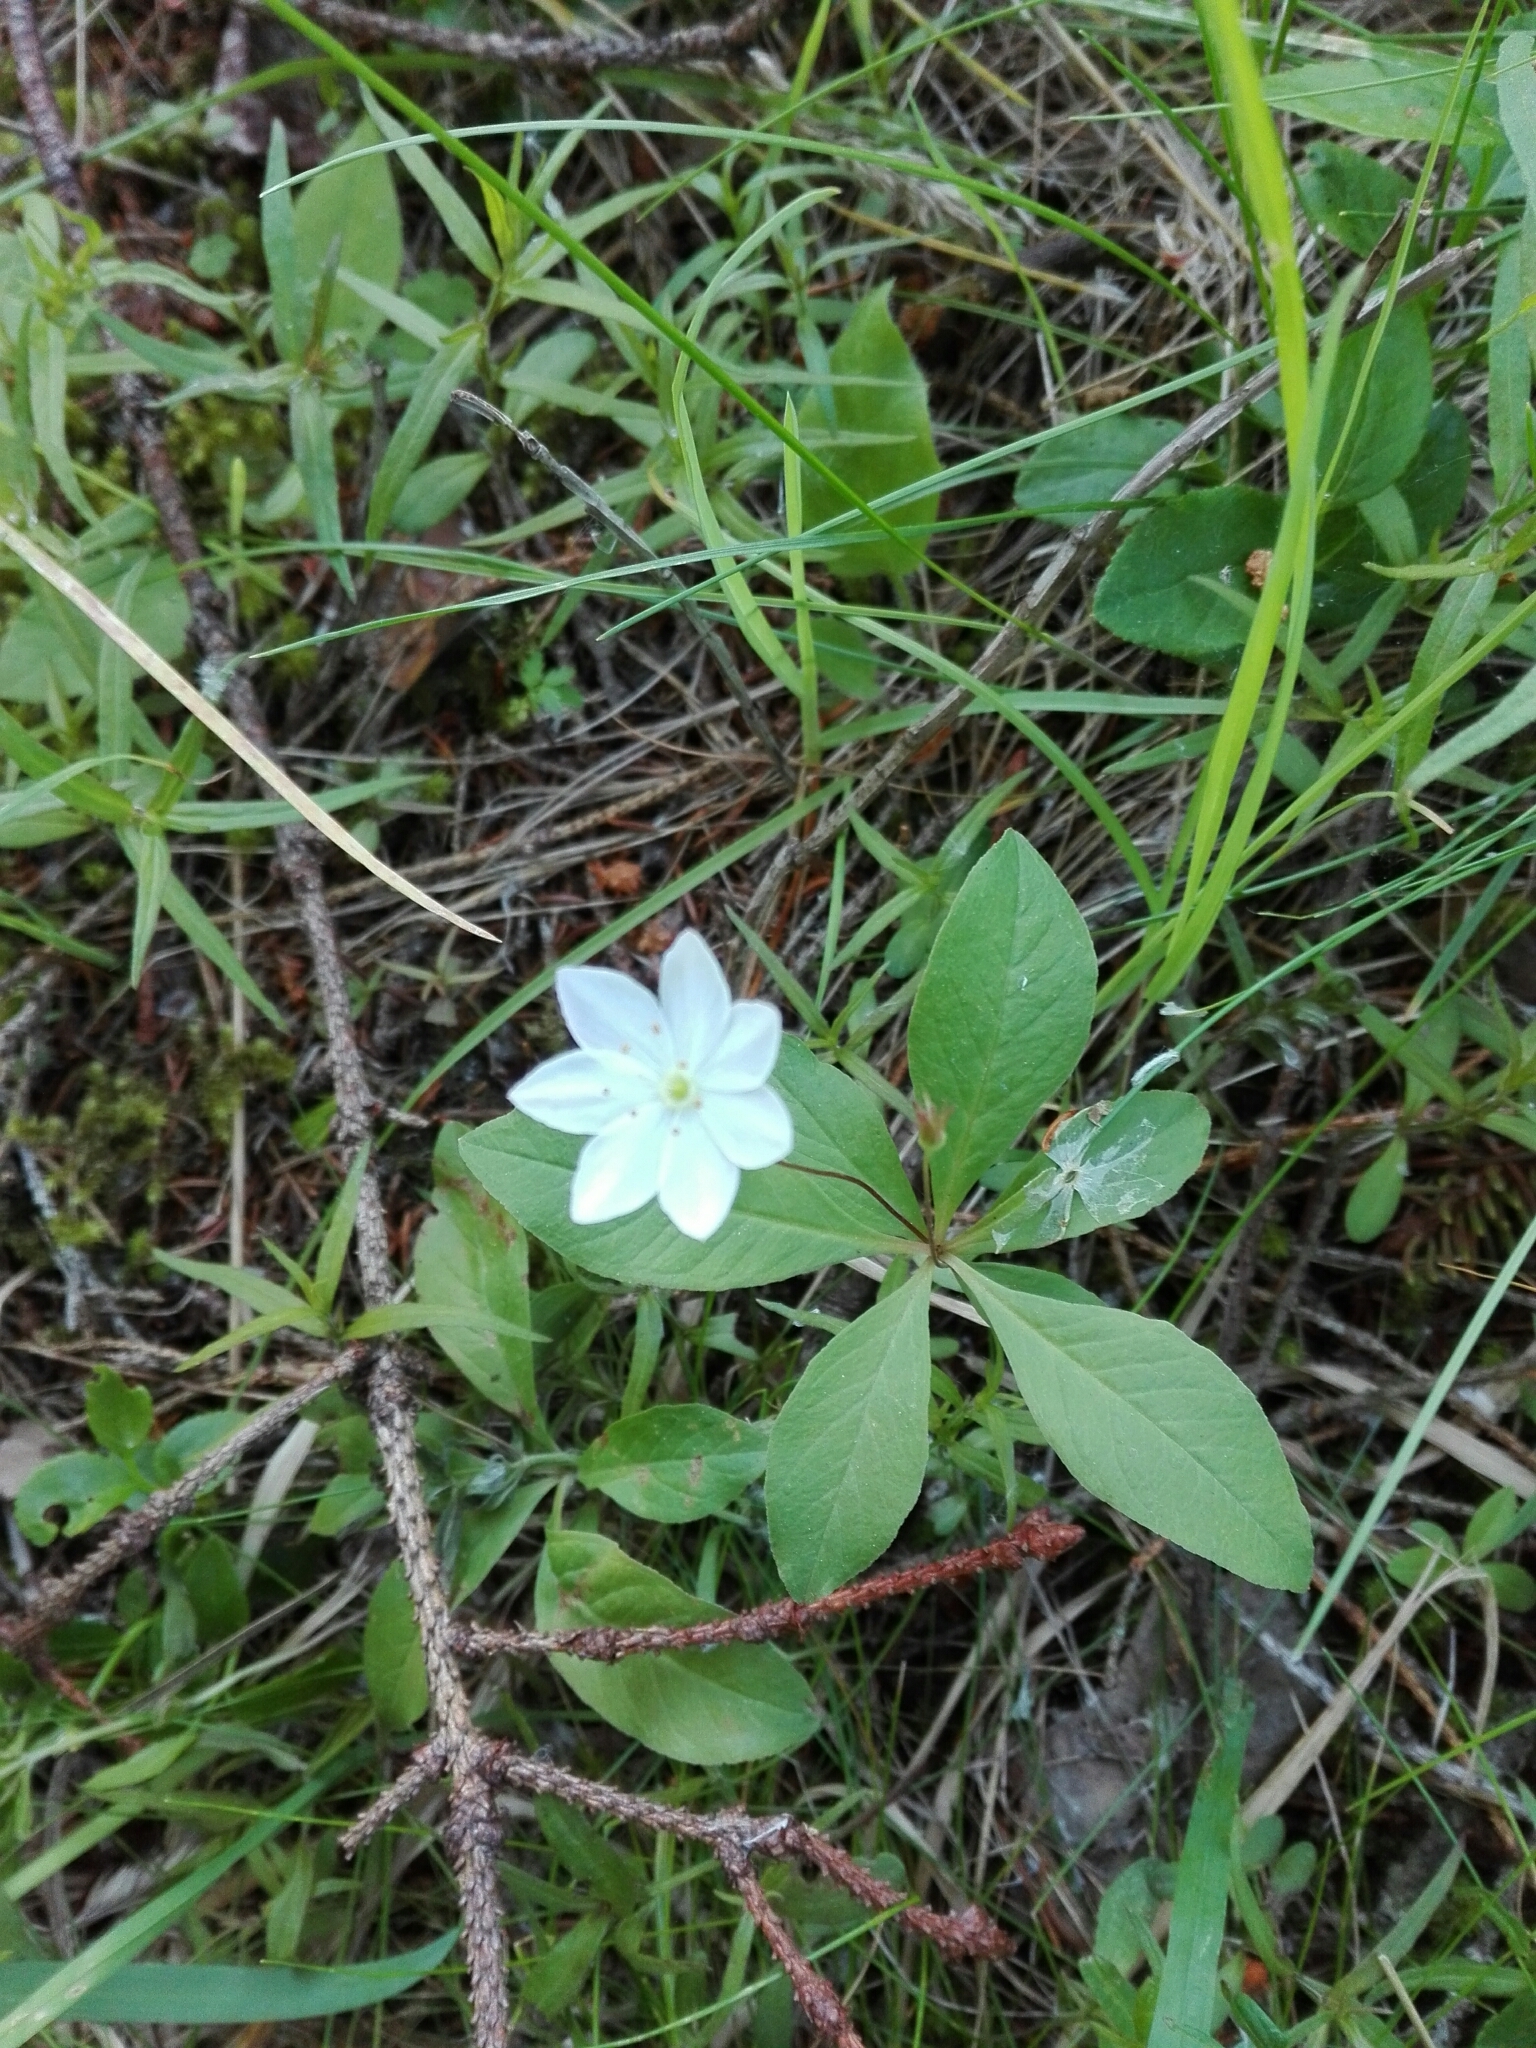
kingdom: Plantae
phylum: Tracheophyta
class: Magnoliopsida
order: Ericales
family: Primulaceae
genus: Lysimachia
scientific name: Lysimachia europaea
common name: Arctic starflower
